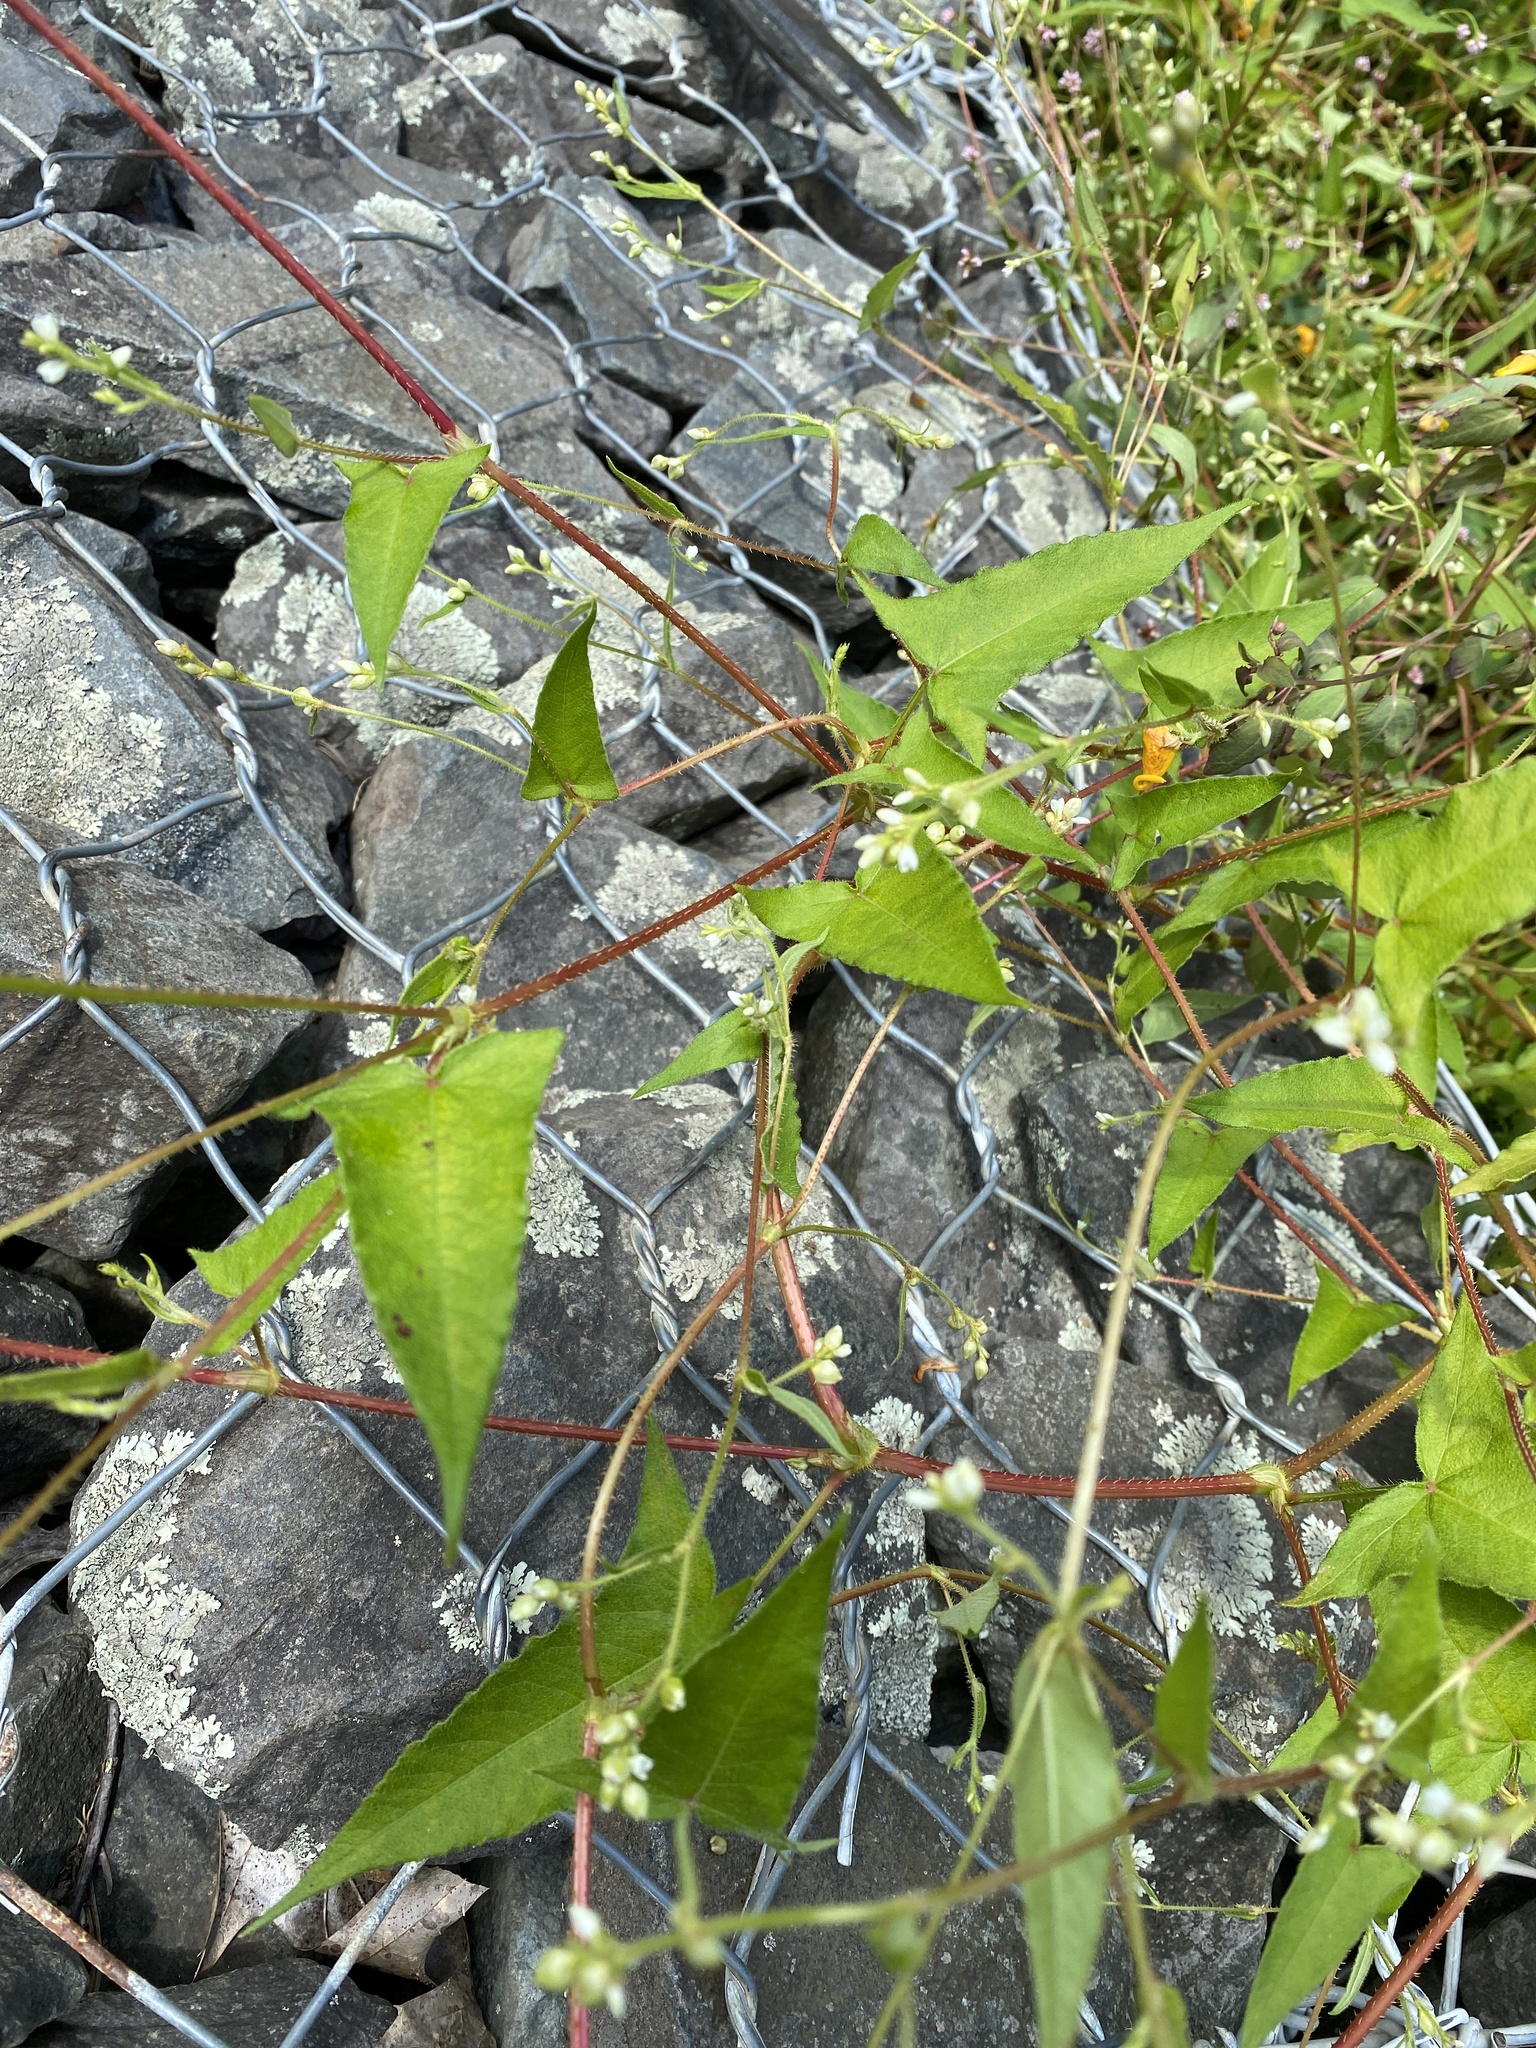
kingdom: Plantae
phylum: Tracheophyta
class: Magnoliopsida
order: Caryophyllales
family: Polygonaceae
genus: Persicaria
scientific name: Persicaria arifolia
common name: Halberd-leaved tear-thumb
